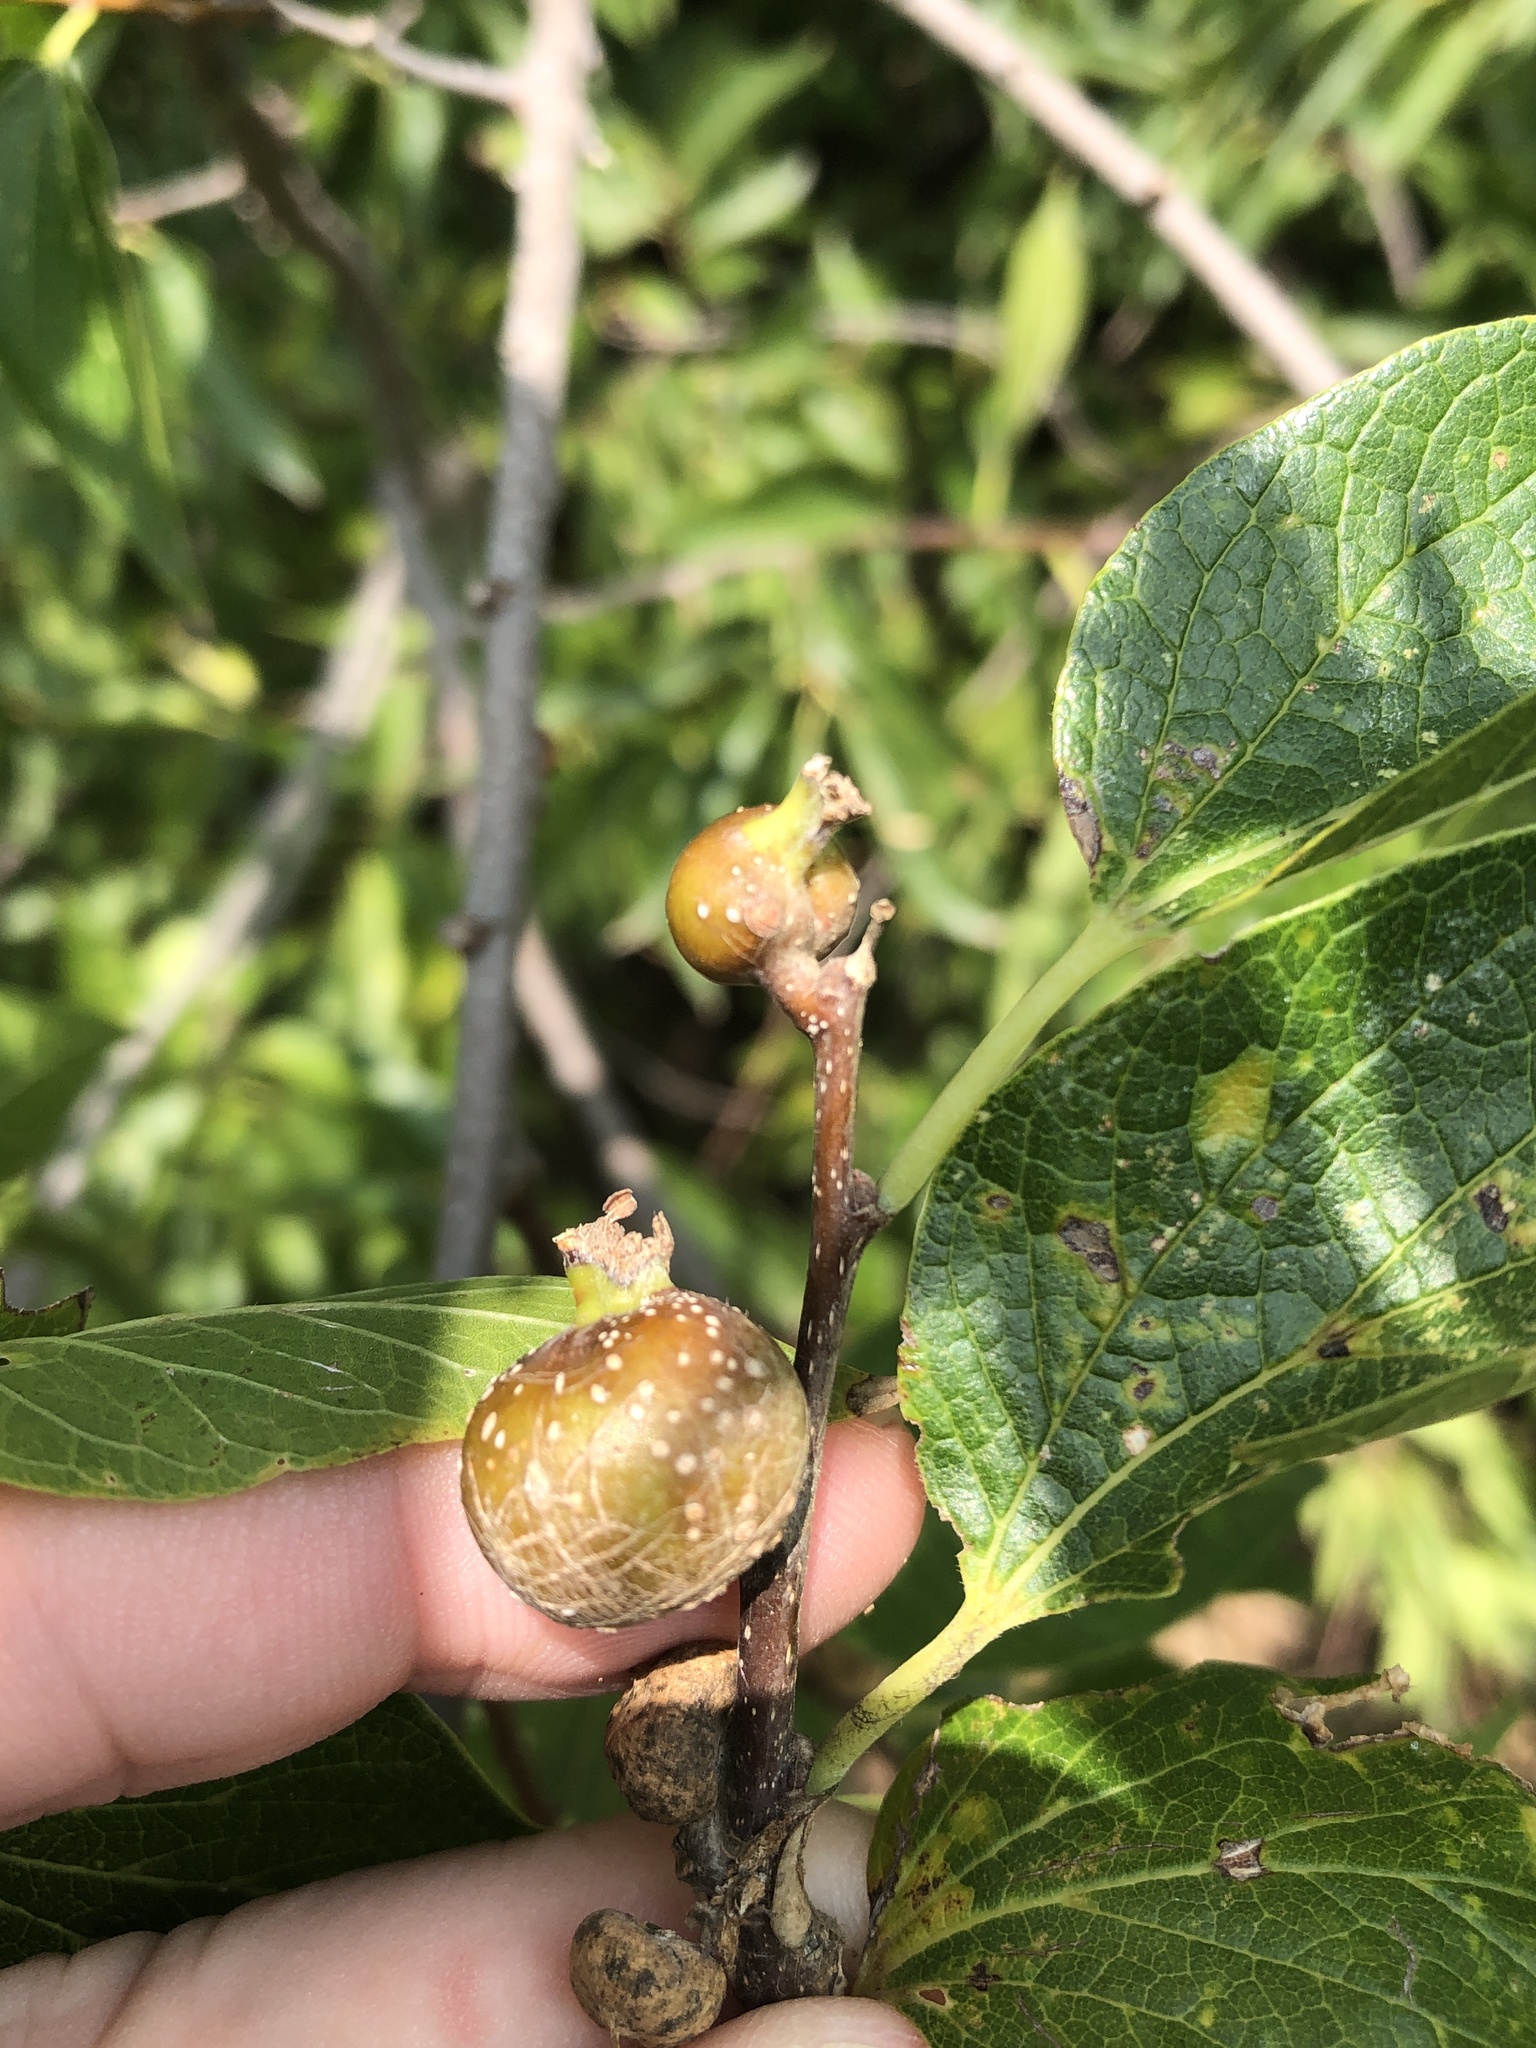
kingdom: Animalia
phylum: Arthropoda
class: Insecta
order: Hemiptera
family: Aphalaridae
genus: Pachypsylla
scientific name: Pachypsylla venusta
